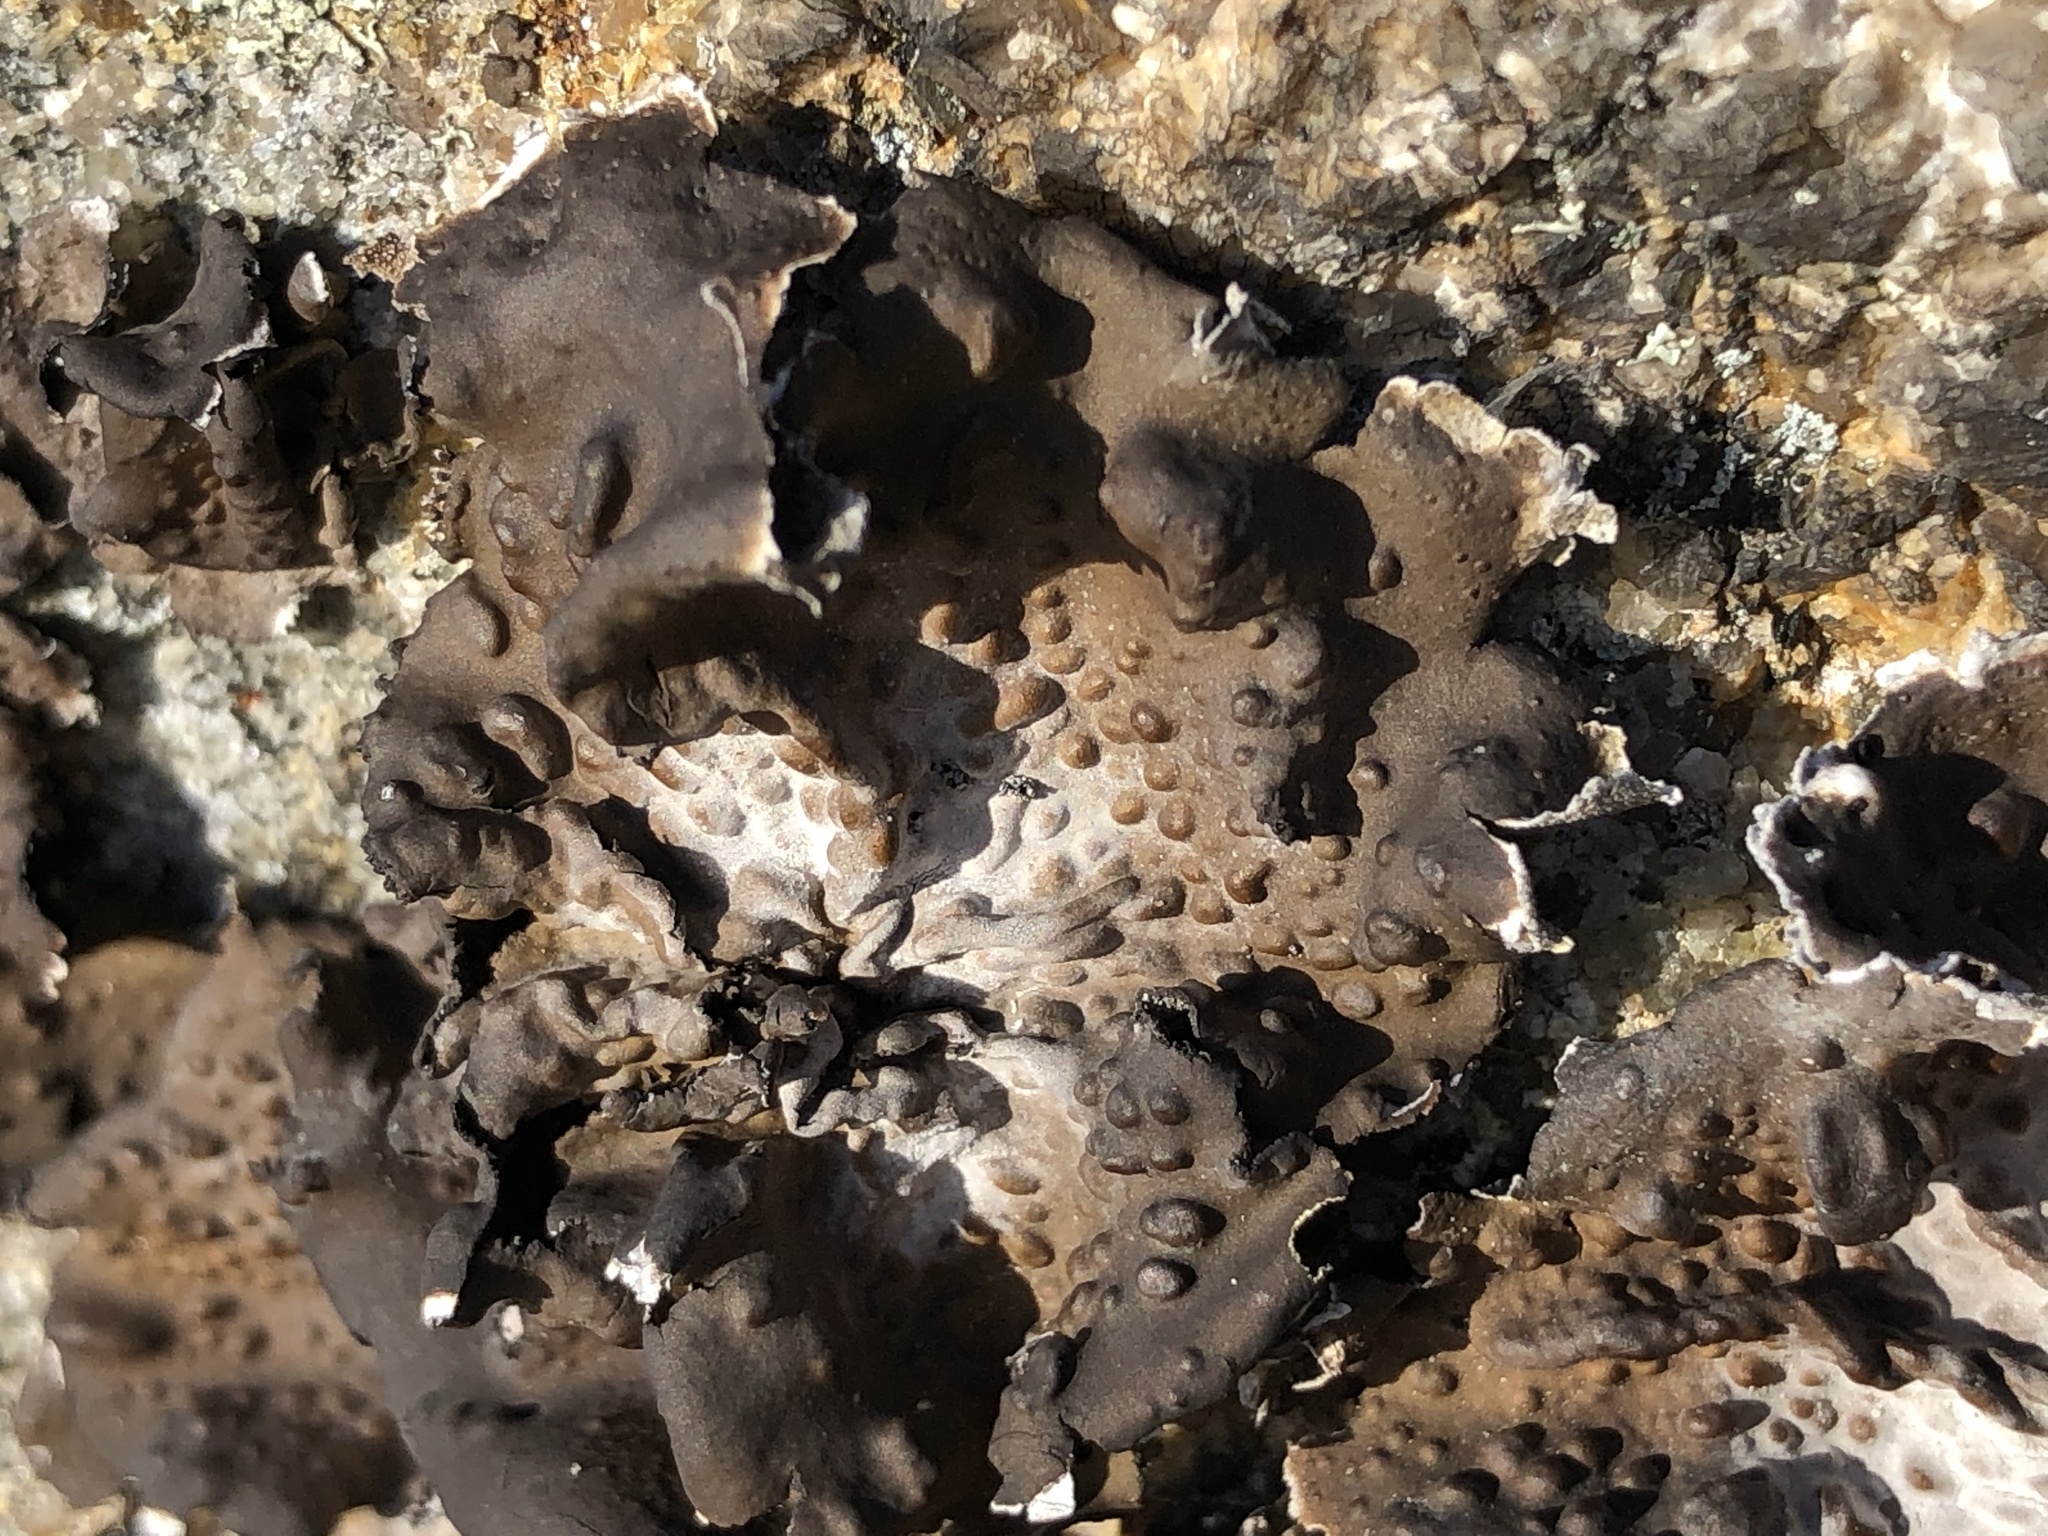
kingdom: Fungi
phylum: Ascomycota
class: Lecanoromycetes
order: Umbilicariales
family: Umbilicariaceae
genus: Lasallia
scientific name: Lasallia pensylvanica
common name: Blackened toadskin lichen
